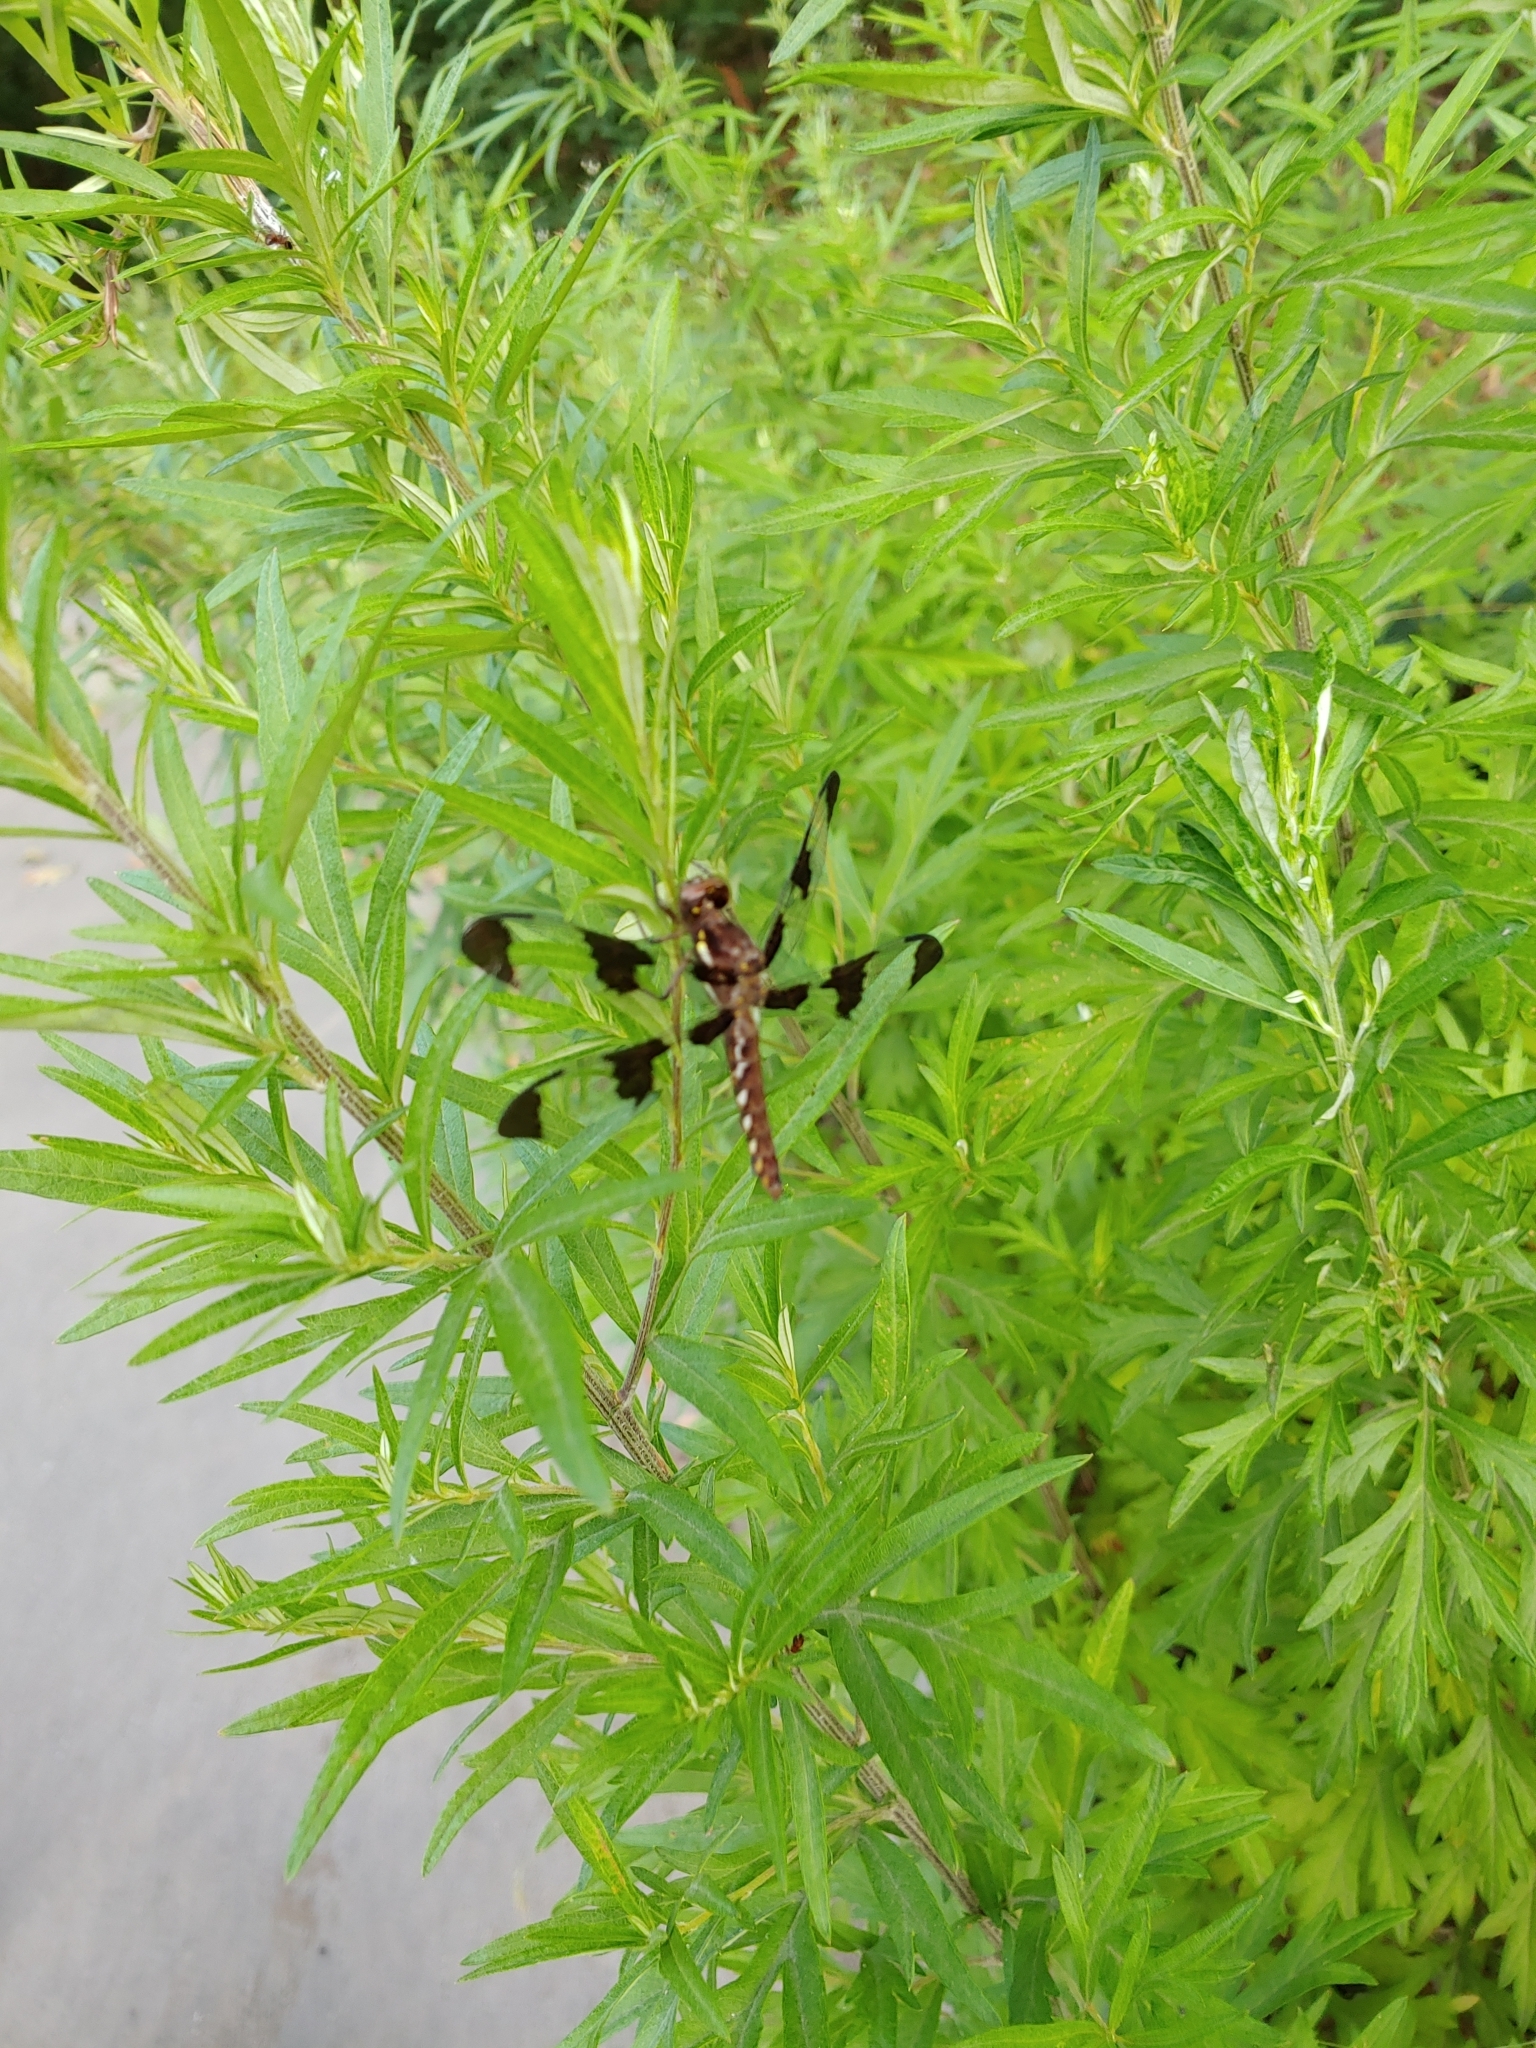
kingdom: Animalia
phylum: Arthropoda
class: Insecta
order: Odonata
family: Libellulidae
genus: Plathemis
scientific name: Plathemis lydia
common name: Common whitetail
